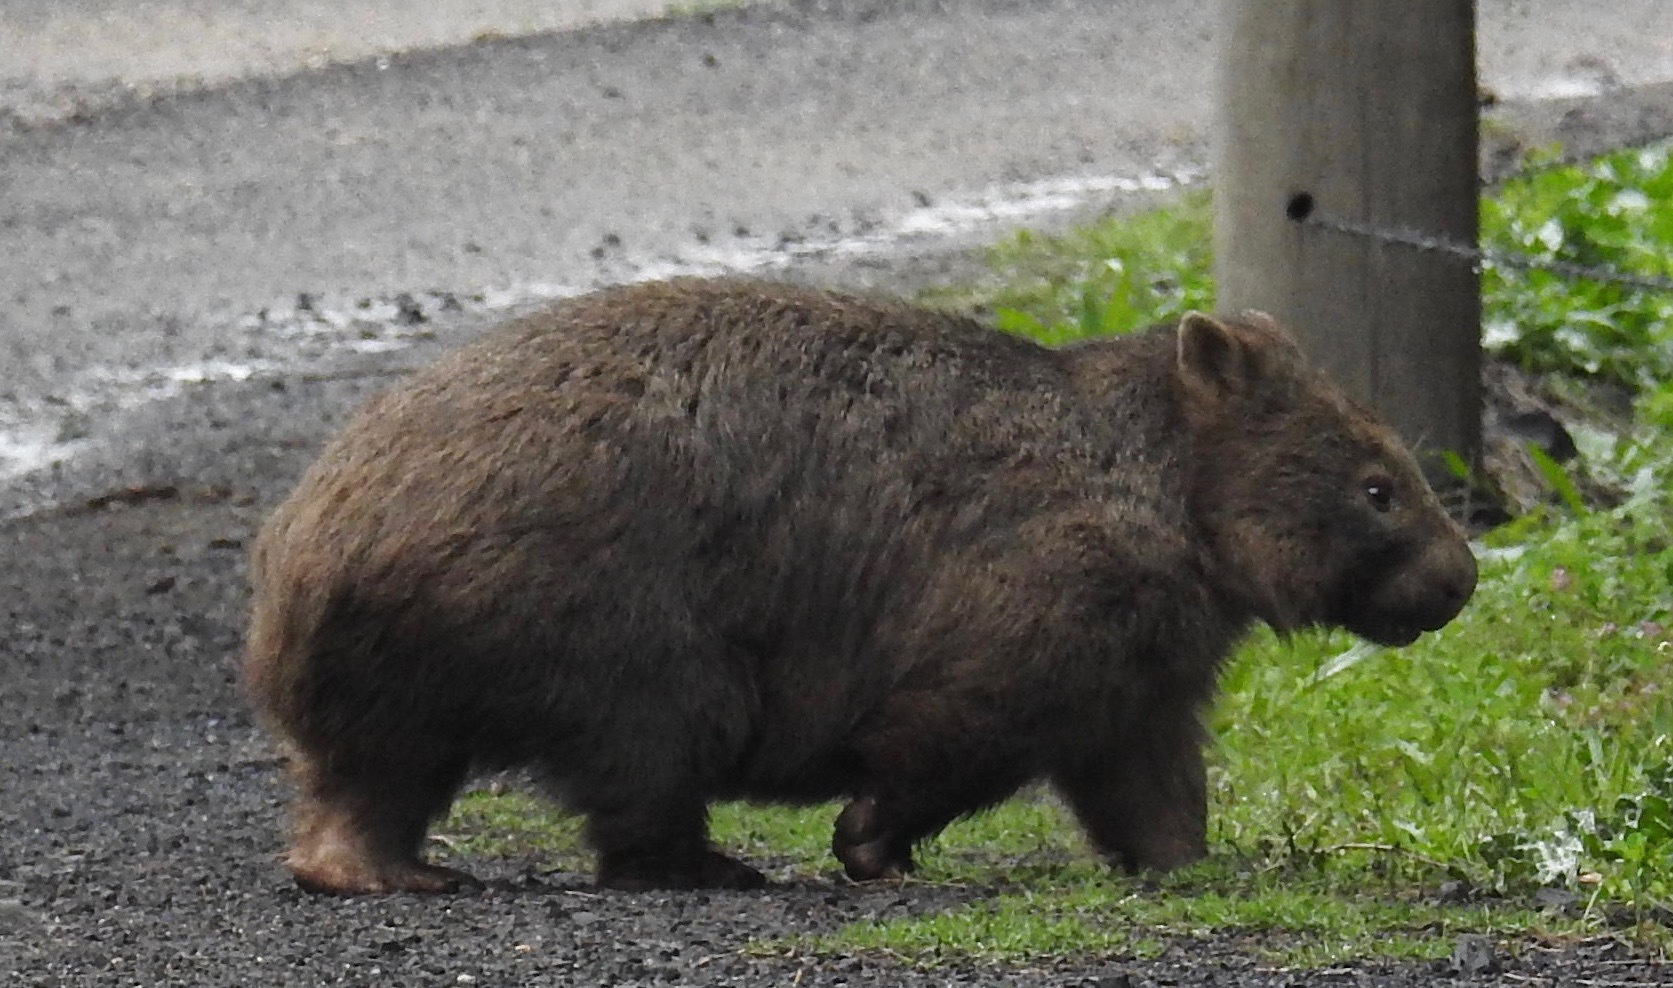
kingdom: Animalia
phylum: Chordata
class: Mammalia
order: Diprotodontia
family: Vombatidae
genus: Vombatus
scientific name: Vombatus ursinus
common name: Common wombat
